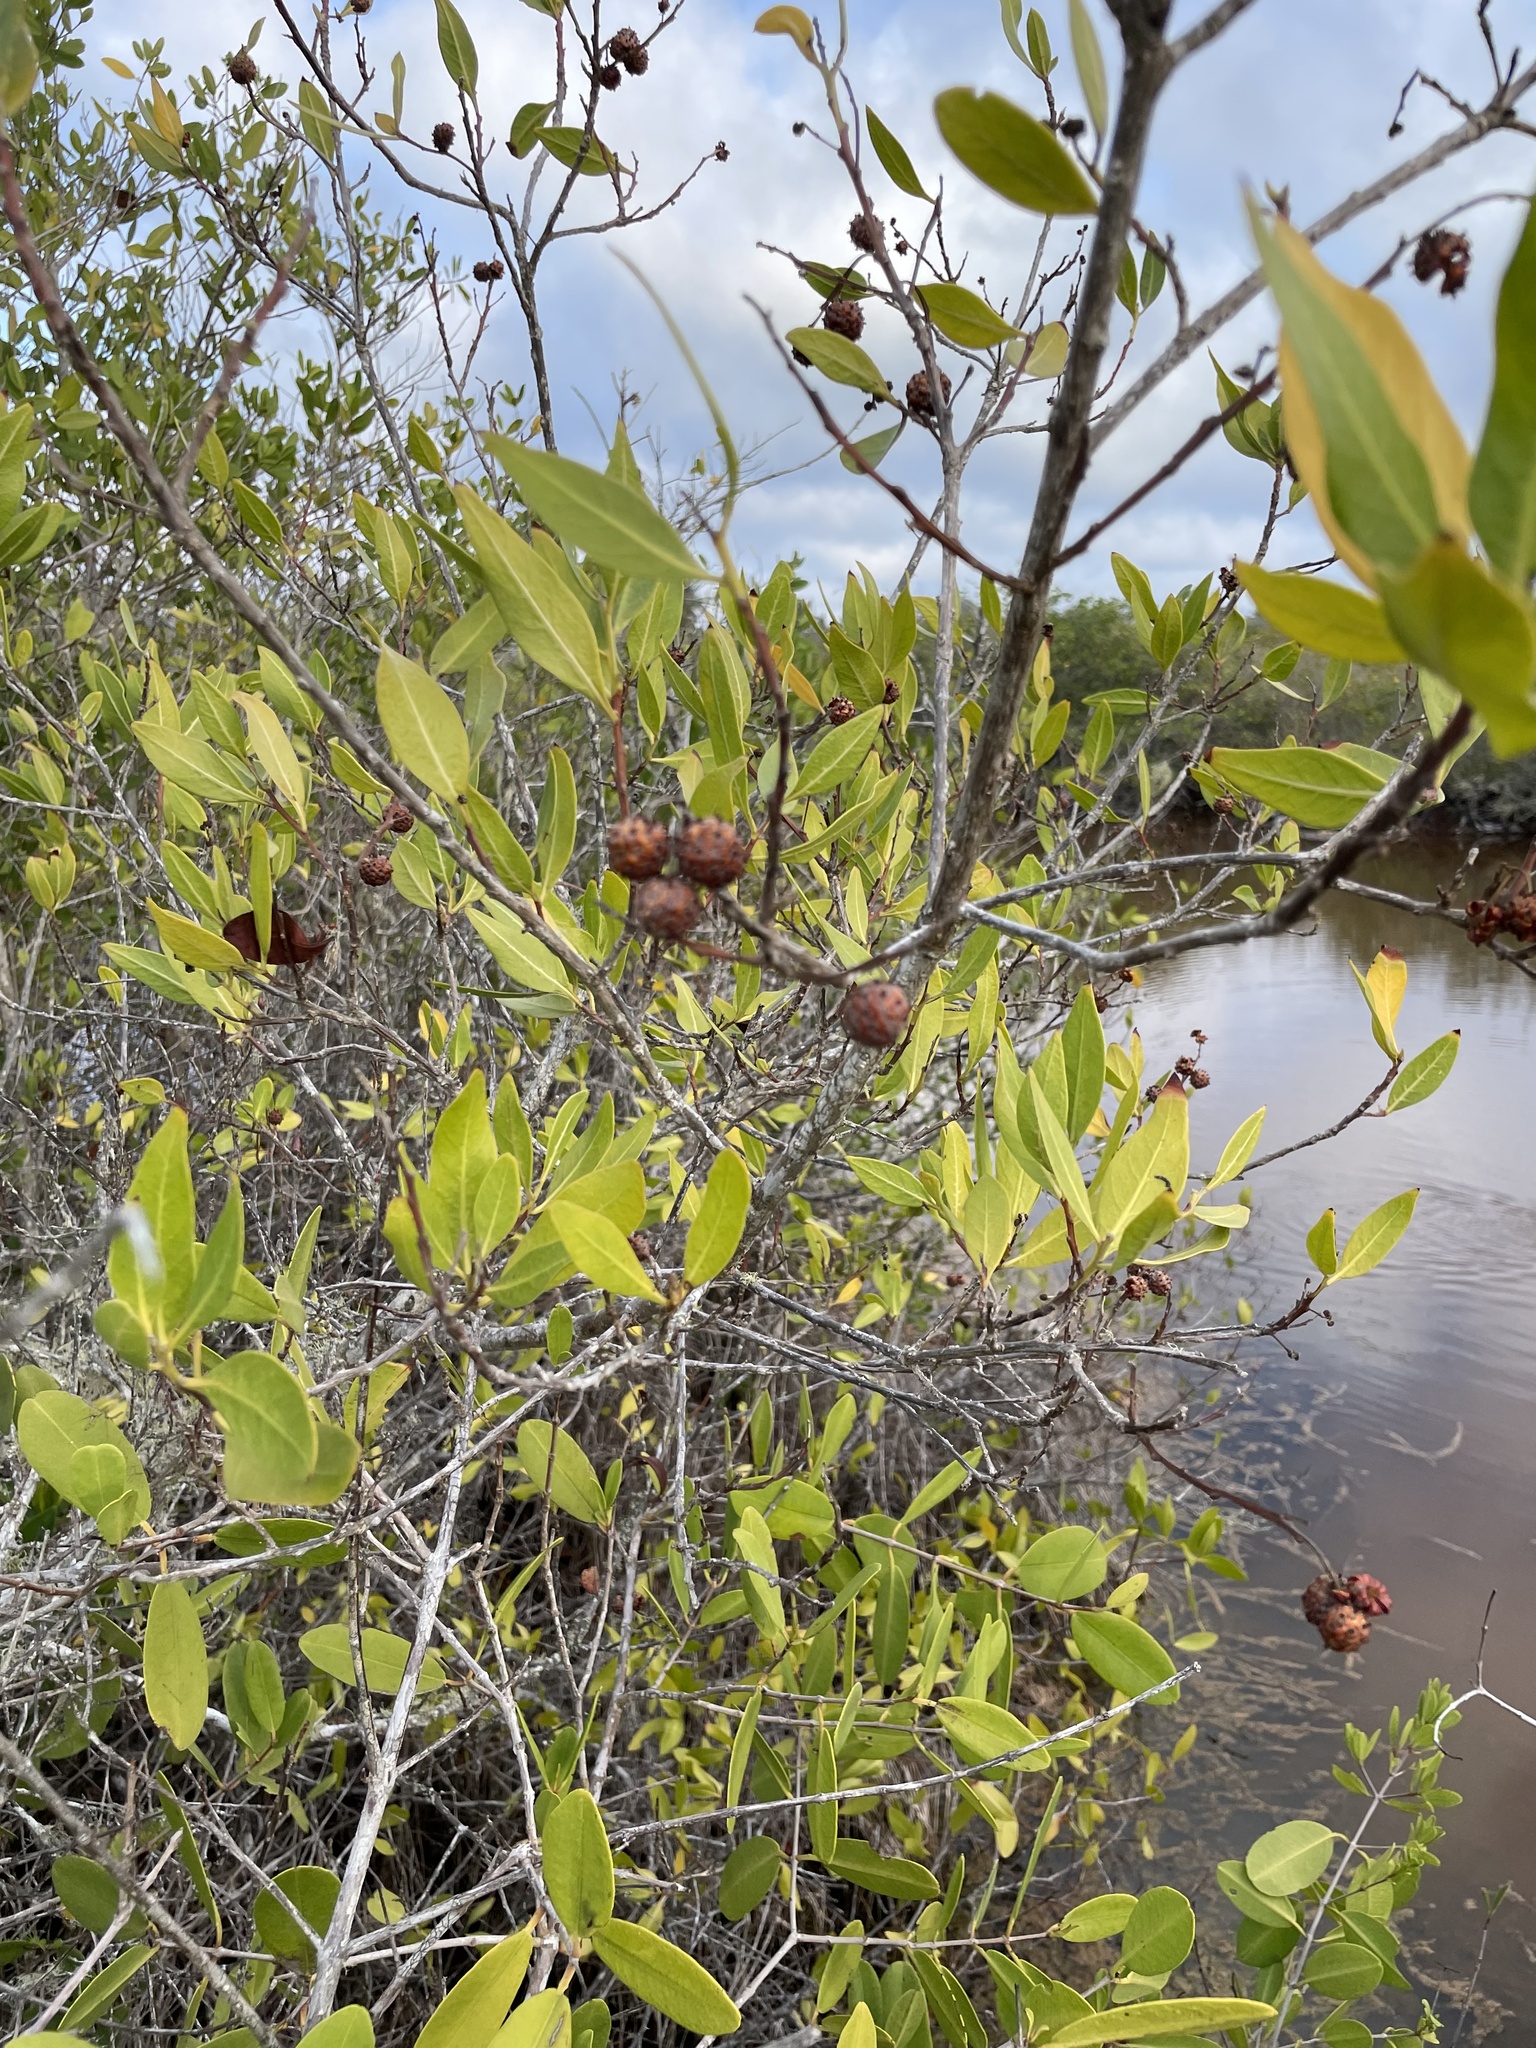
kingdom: Plantae
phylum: Tracheophyta
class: Magnoliopsida
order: Myrtales
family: Combretaceae
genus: Conocarpus
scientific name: Conocarpus erectus
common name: Button mangrove
